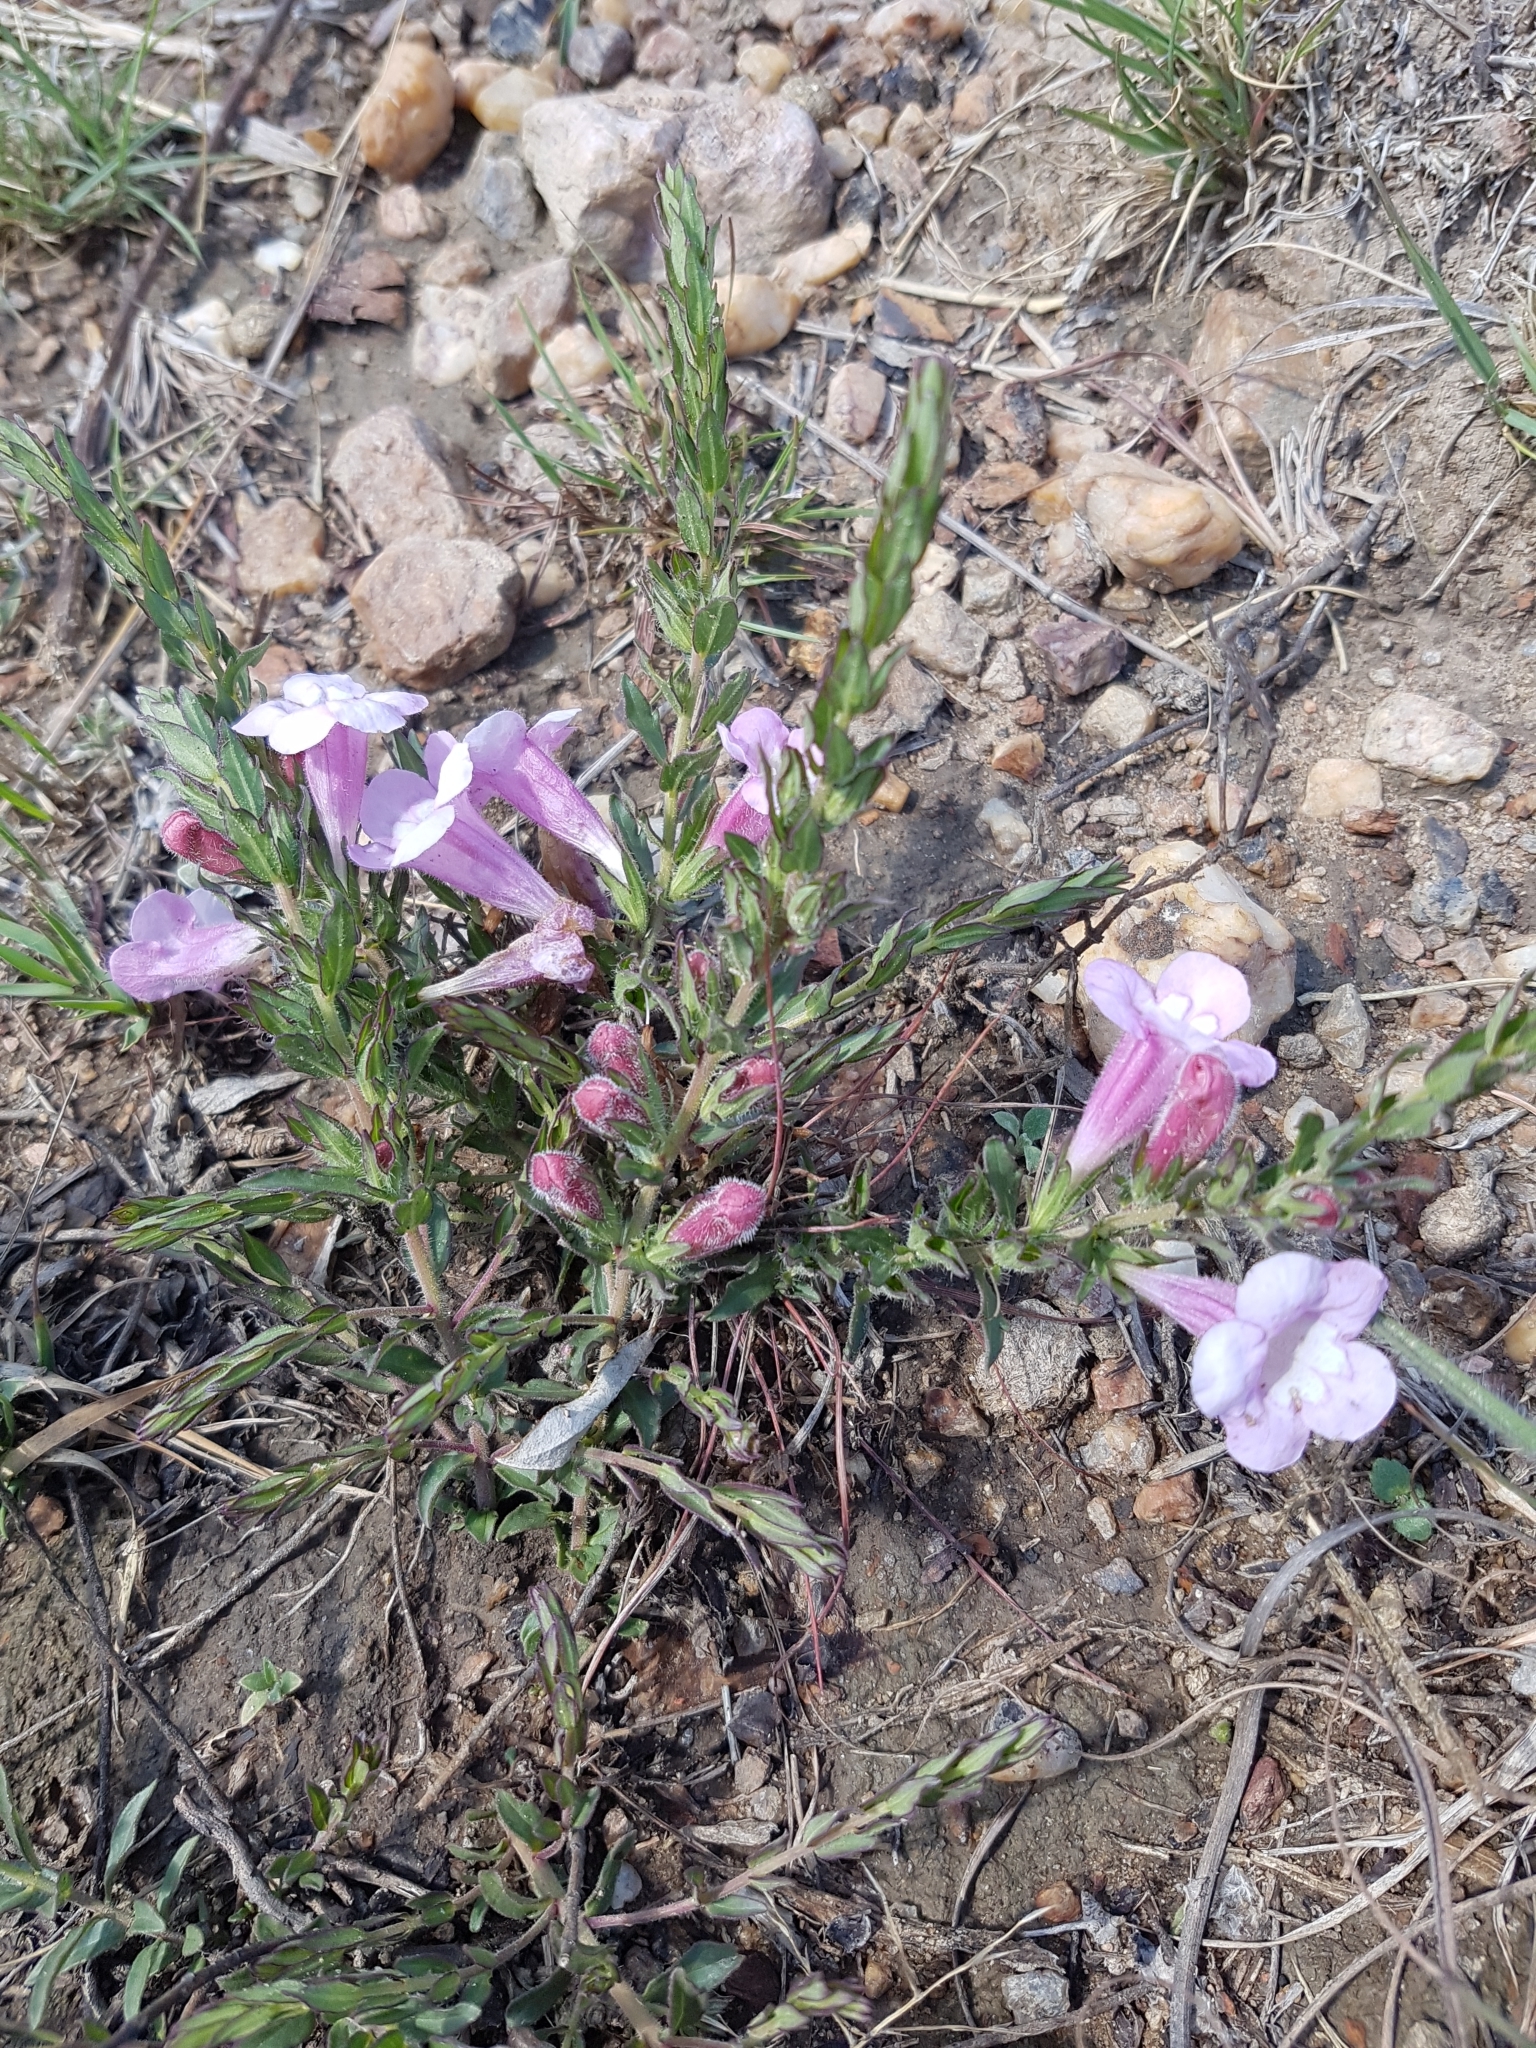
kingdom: Plantae
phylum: Tracheophyta
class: Magnoliopsida
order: Lamiales
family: Orobanchaceae
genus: Graderia
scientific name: Graderia subintegra
